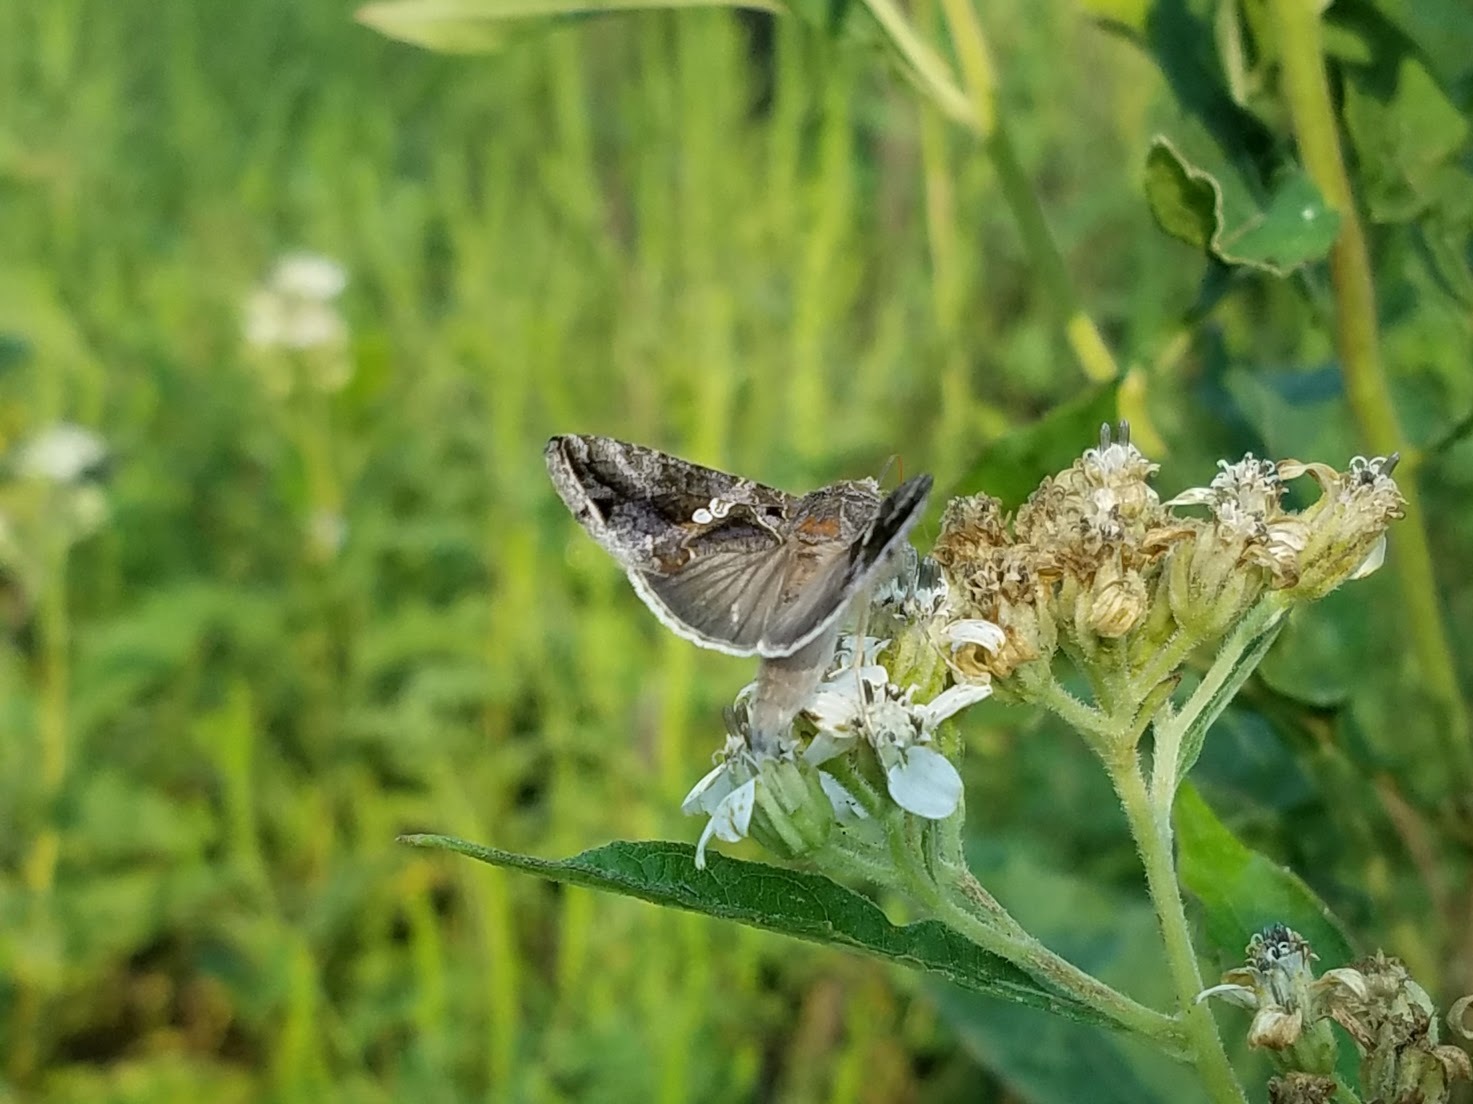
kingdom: Animalia
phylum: Arthropoda
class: Insecta
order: Lepidoptera
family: Noctuidae
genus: Chrysodeixis
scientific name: Chrysodeixis includens
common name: Cutworm moth
